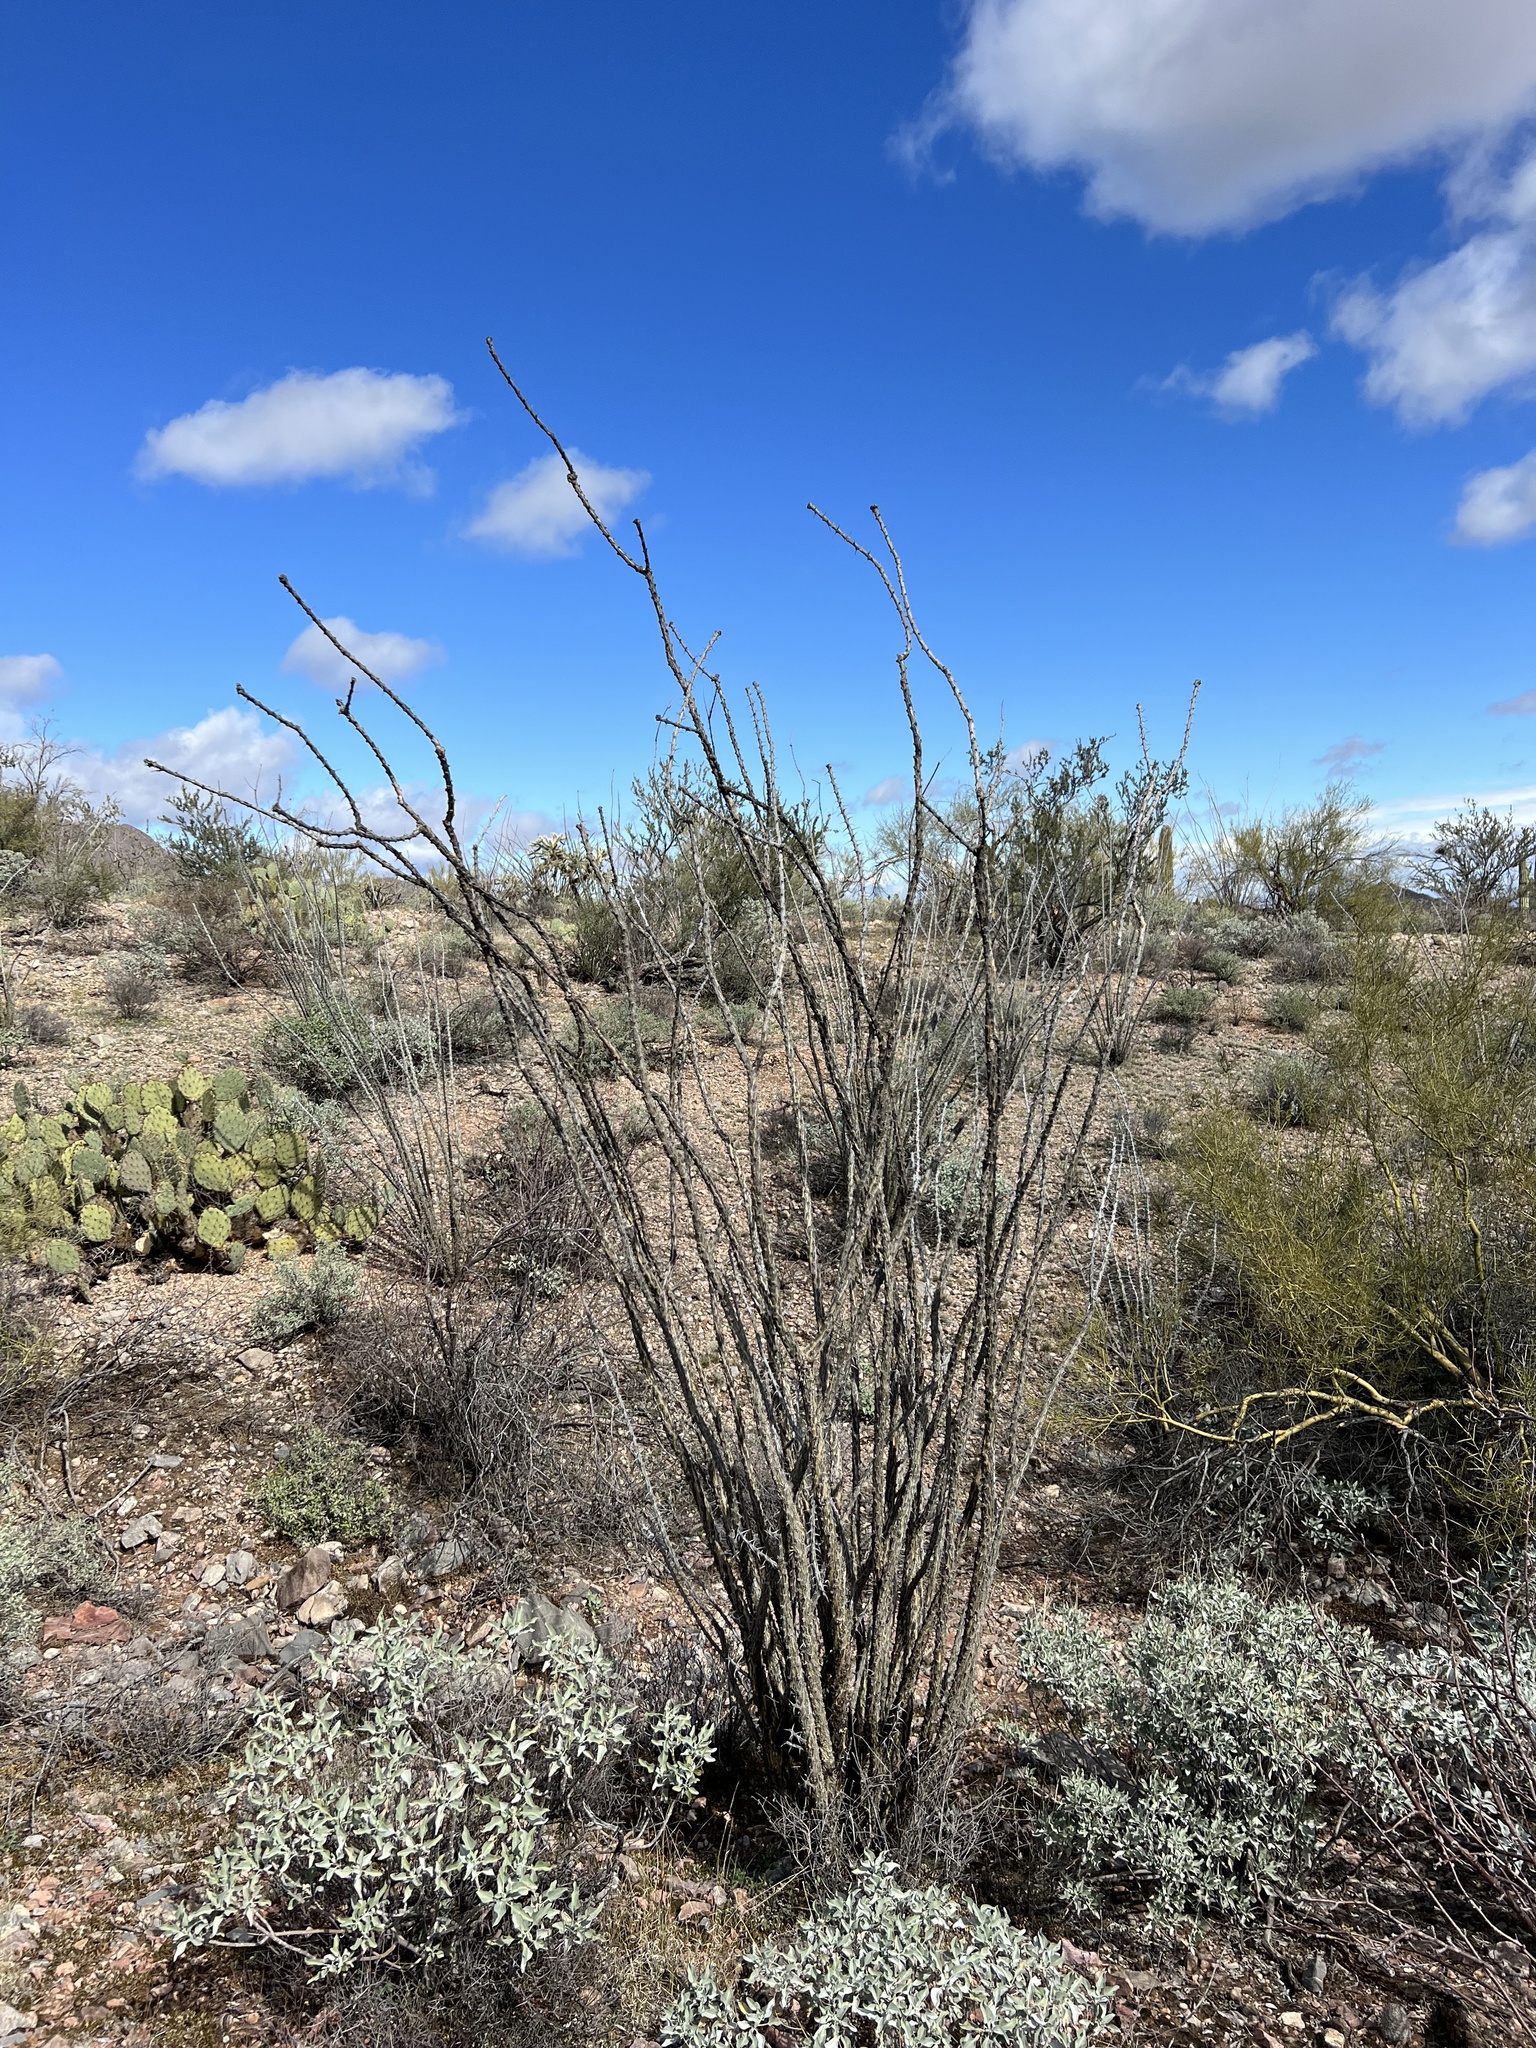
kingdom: Plantae
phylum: Tracheophyta
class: Magnoliopsida
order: Ericales
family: Fouquieriaceae
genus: Fouquieria
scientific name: Fouquieria splendens
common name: Vine-cactus
